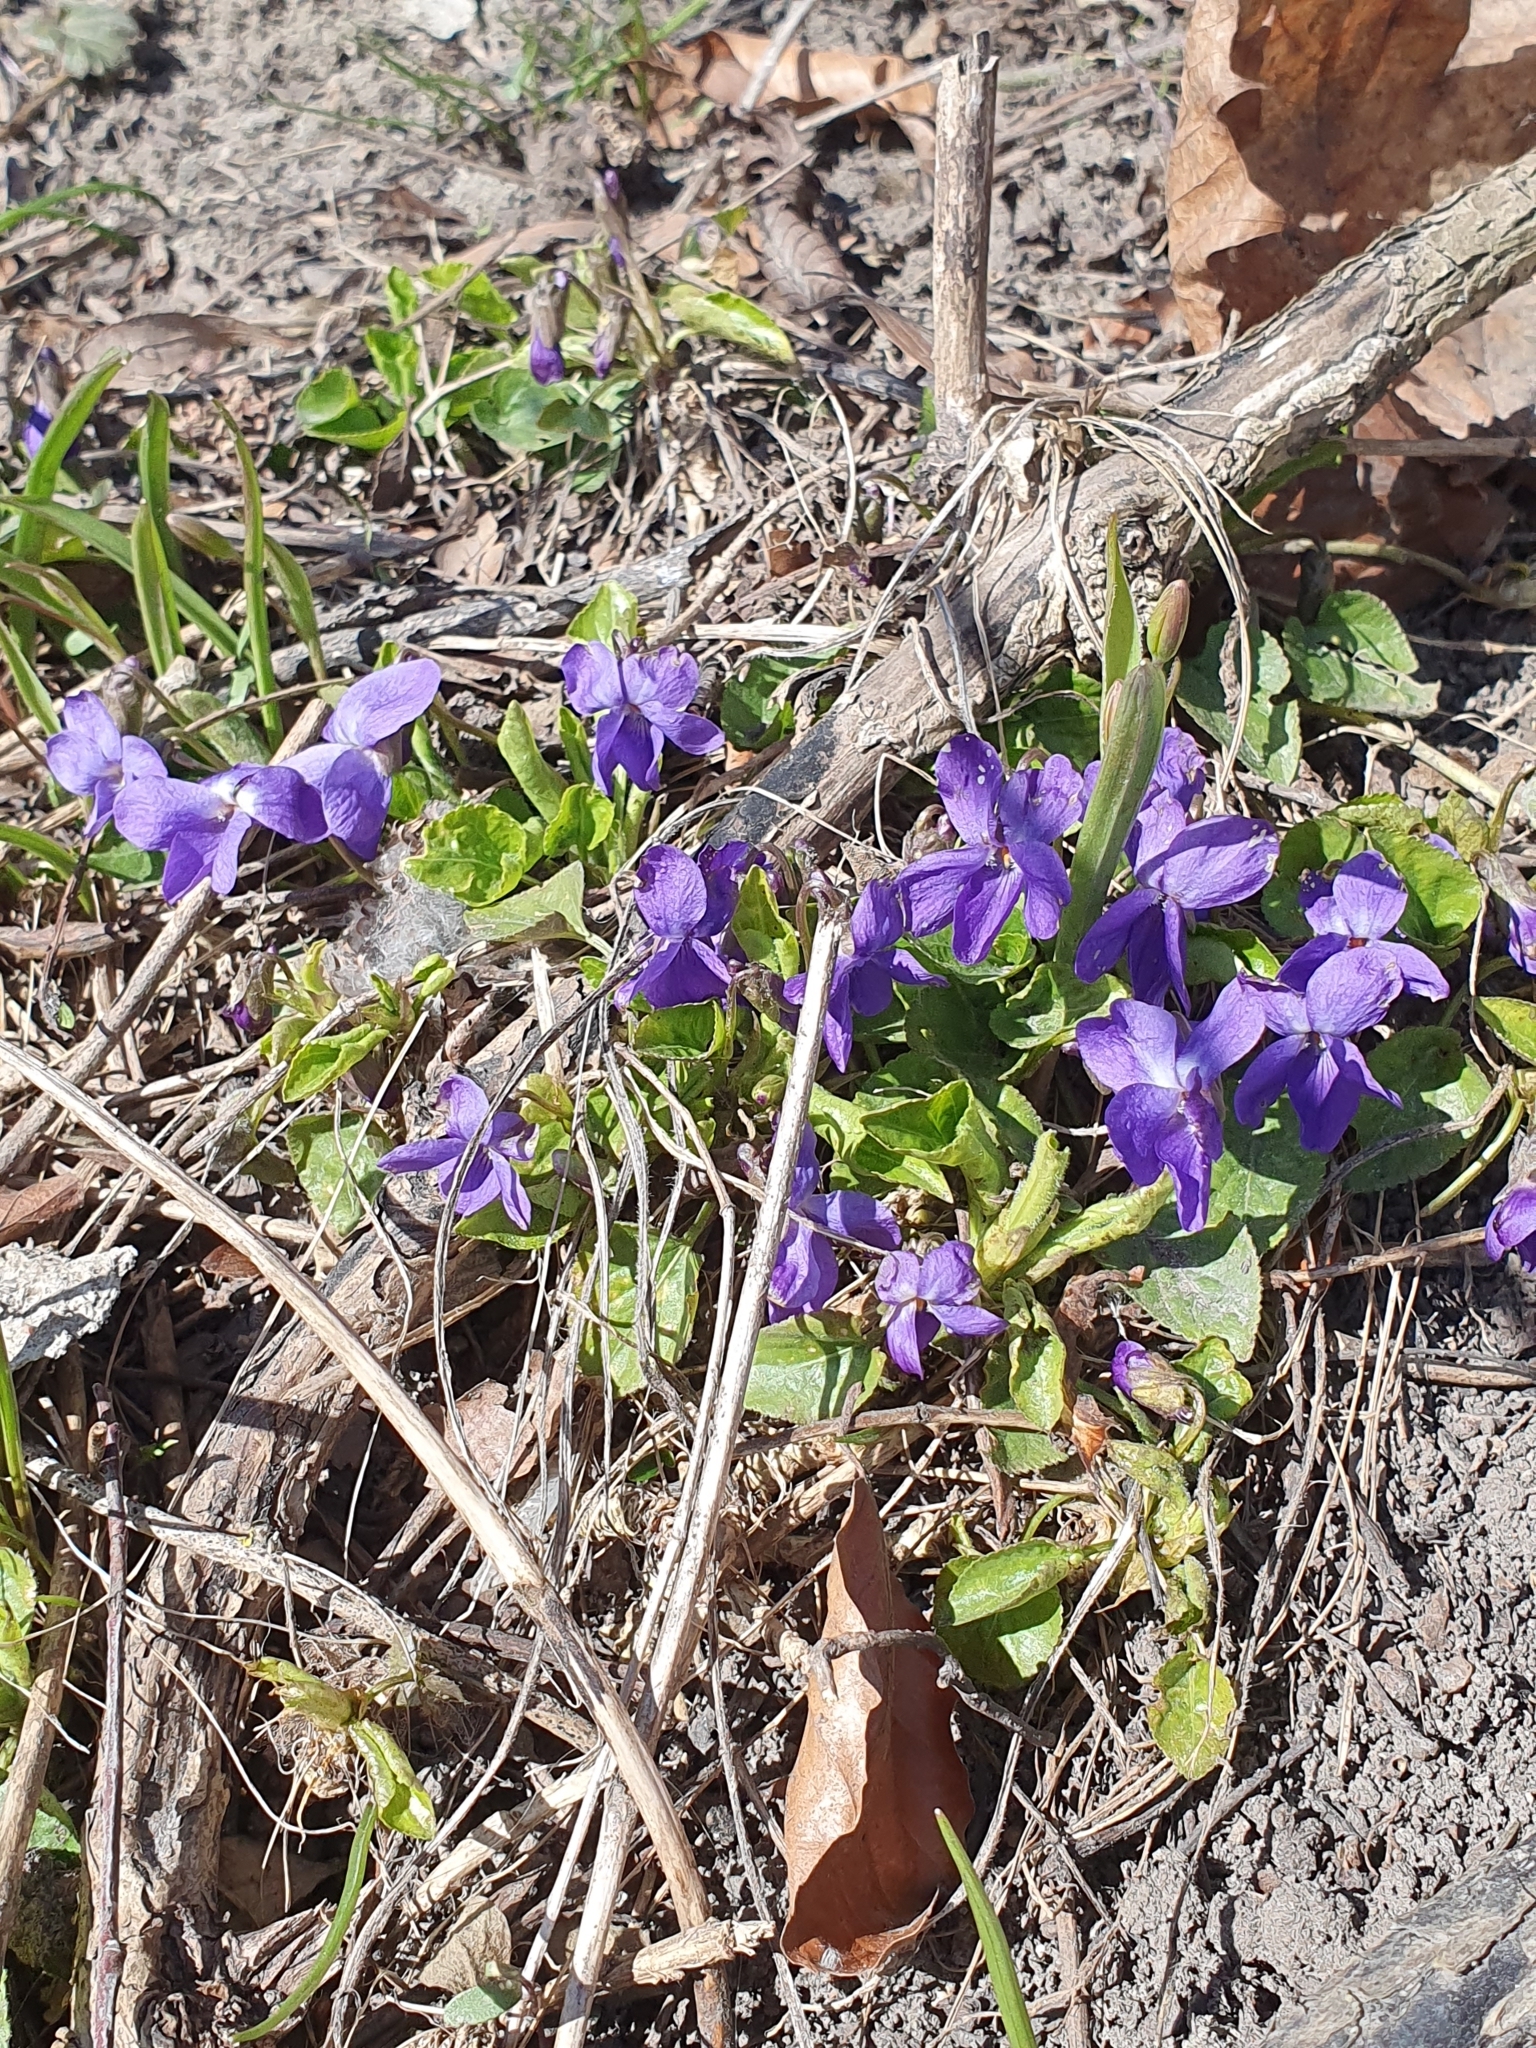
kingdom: Plantae
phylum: Tracheophyta
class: Magnoliopsida
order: Malpighiales
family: Violaceae
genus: Viola
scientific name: Viola odorata
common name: Sweet violet
